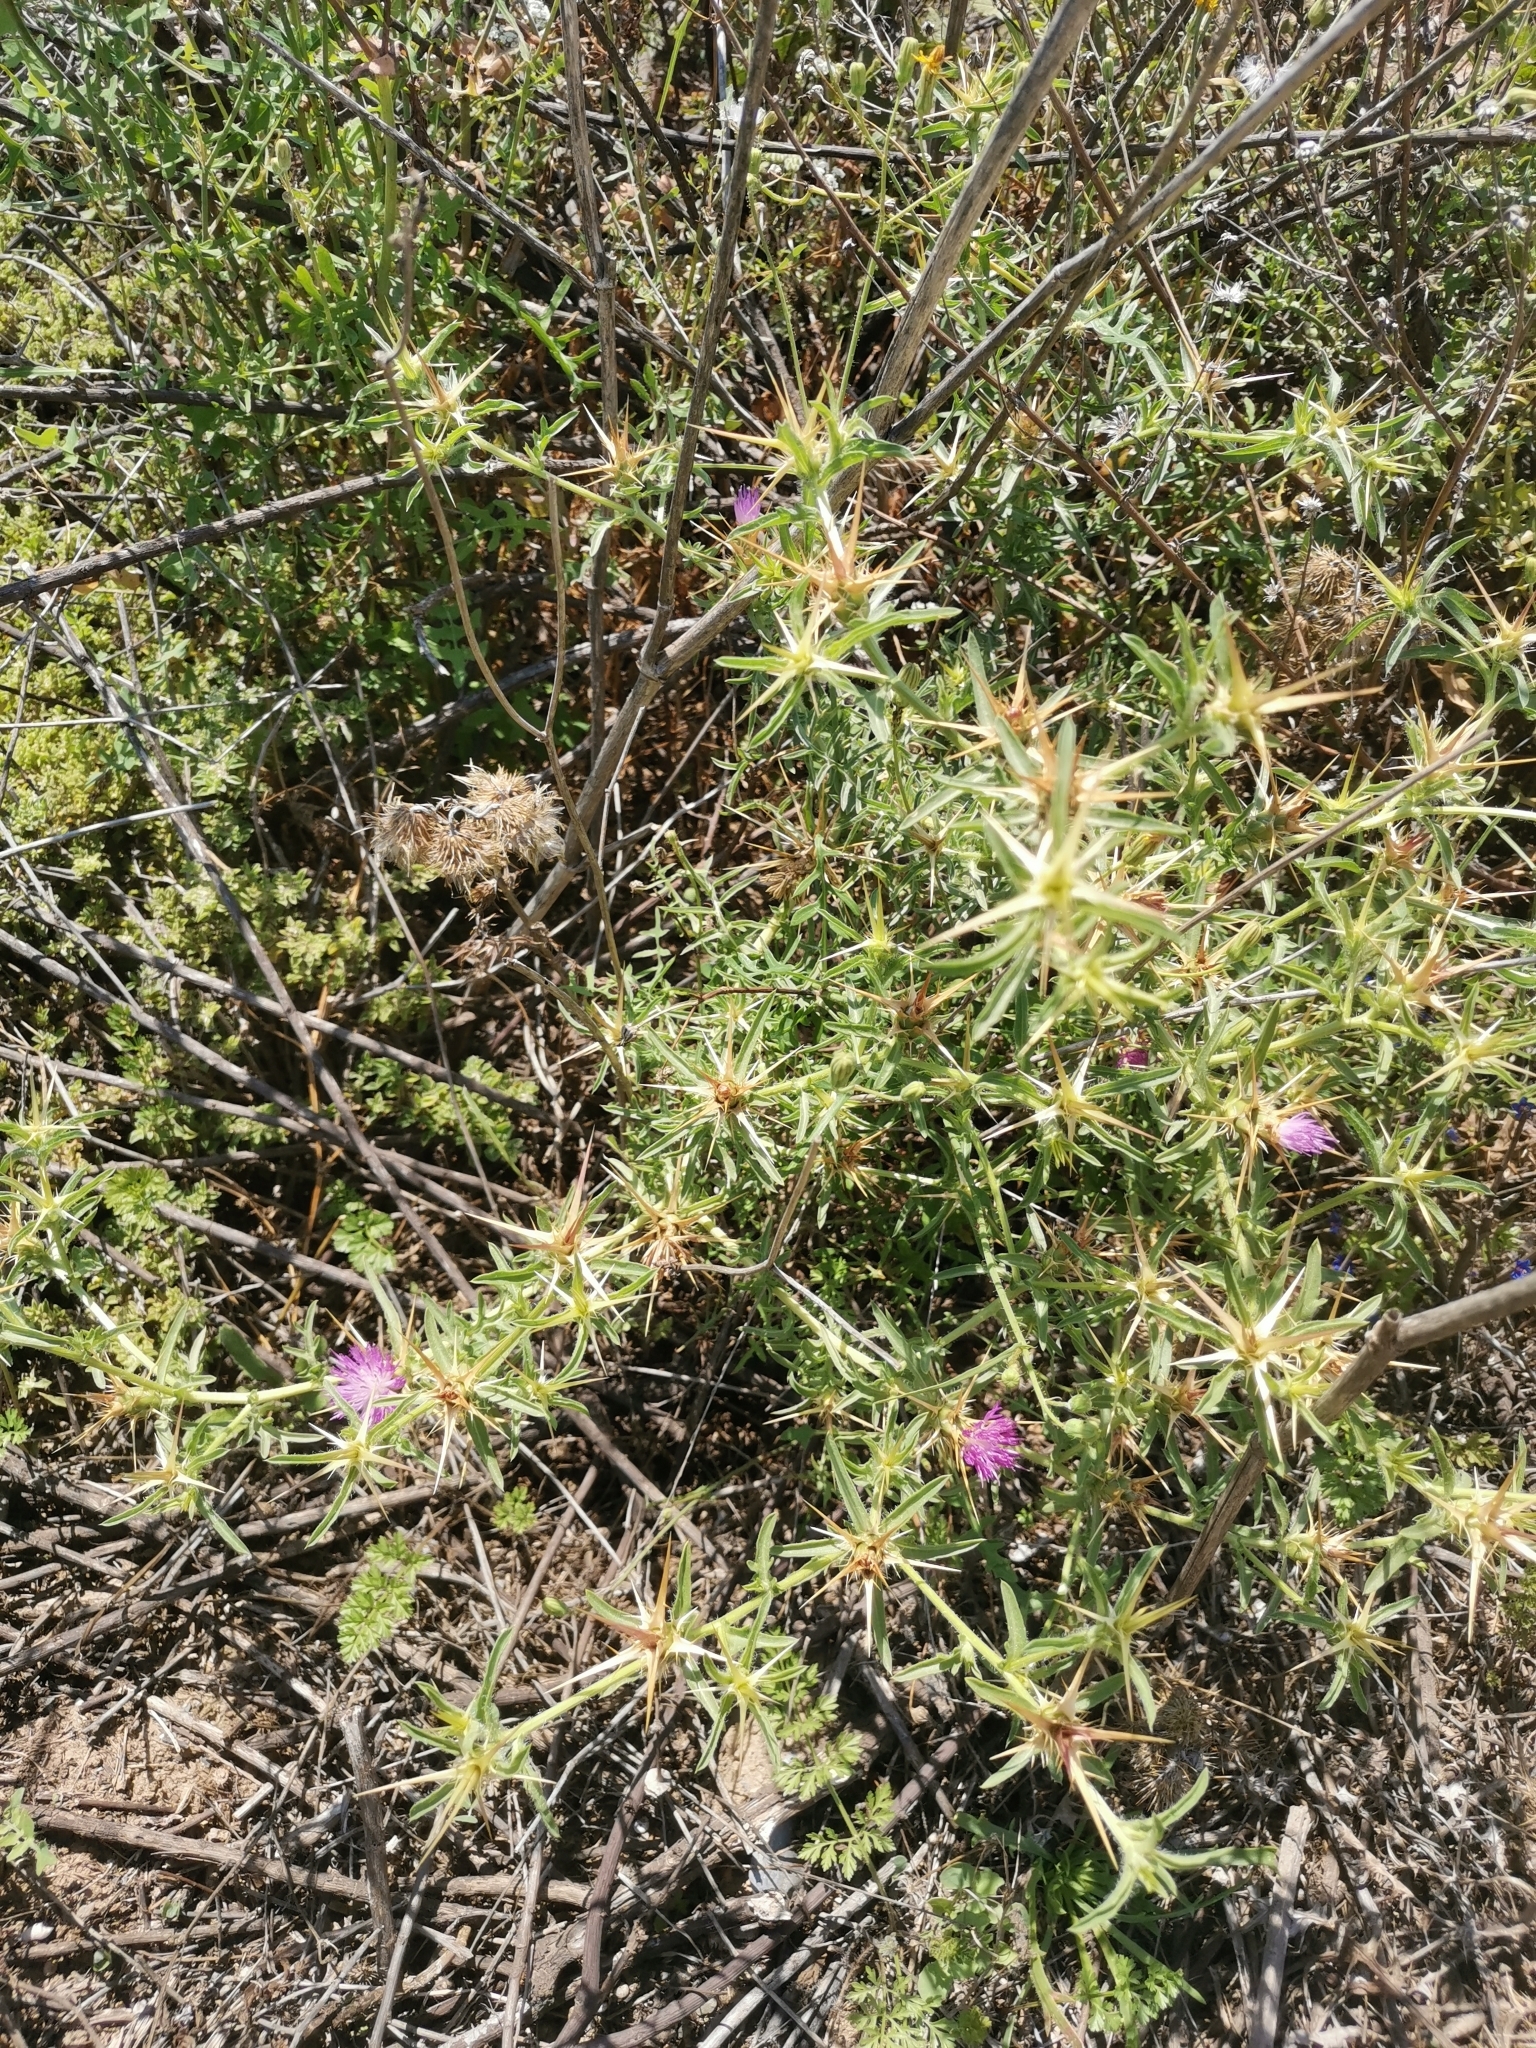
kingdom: Plantae
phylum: Tracheophyta
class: Magnoliopsida
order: Asterales
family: Asteraceae
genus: Centaurea
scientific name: Centaurea calcitrapa
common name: Red star-thistle
